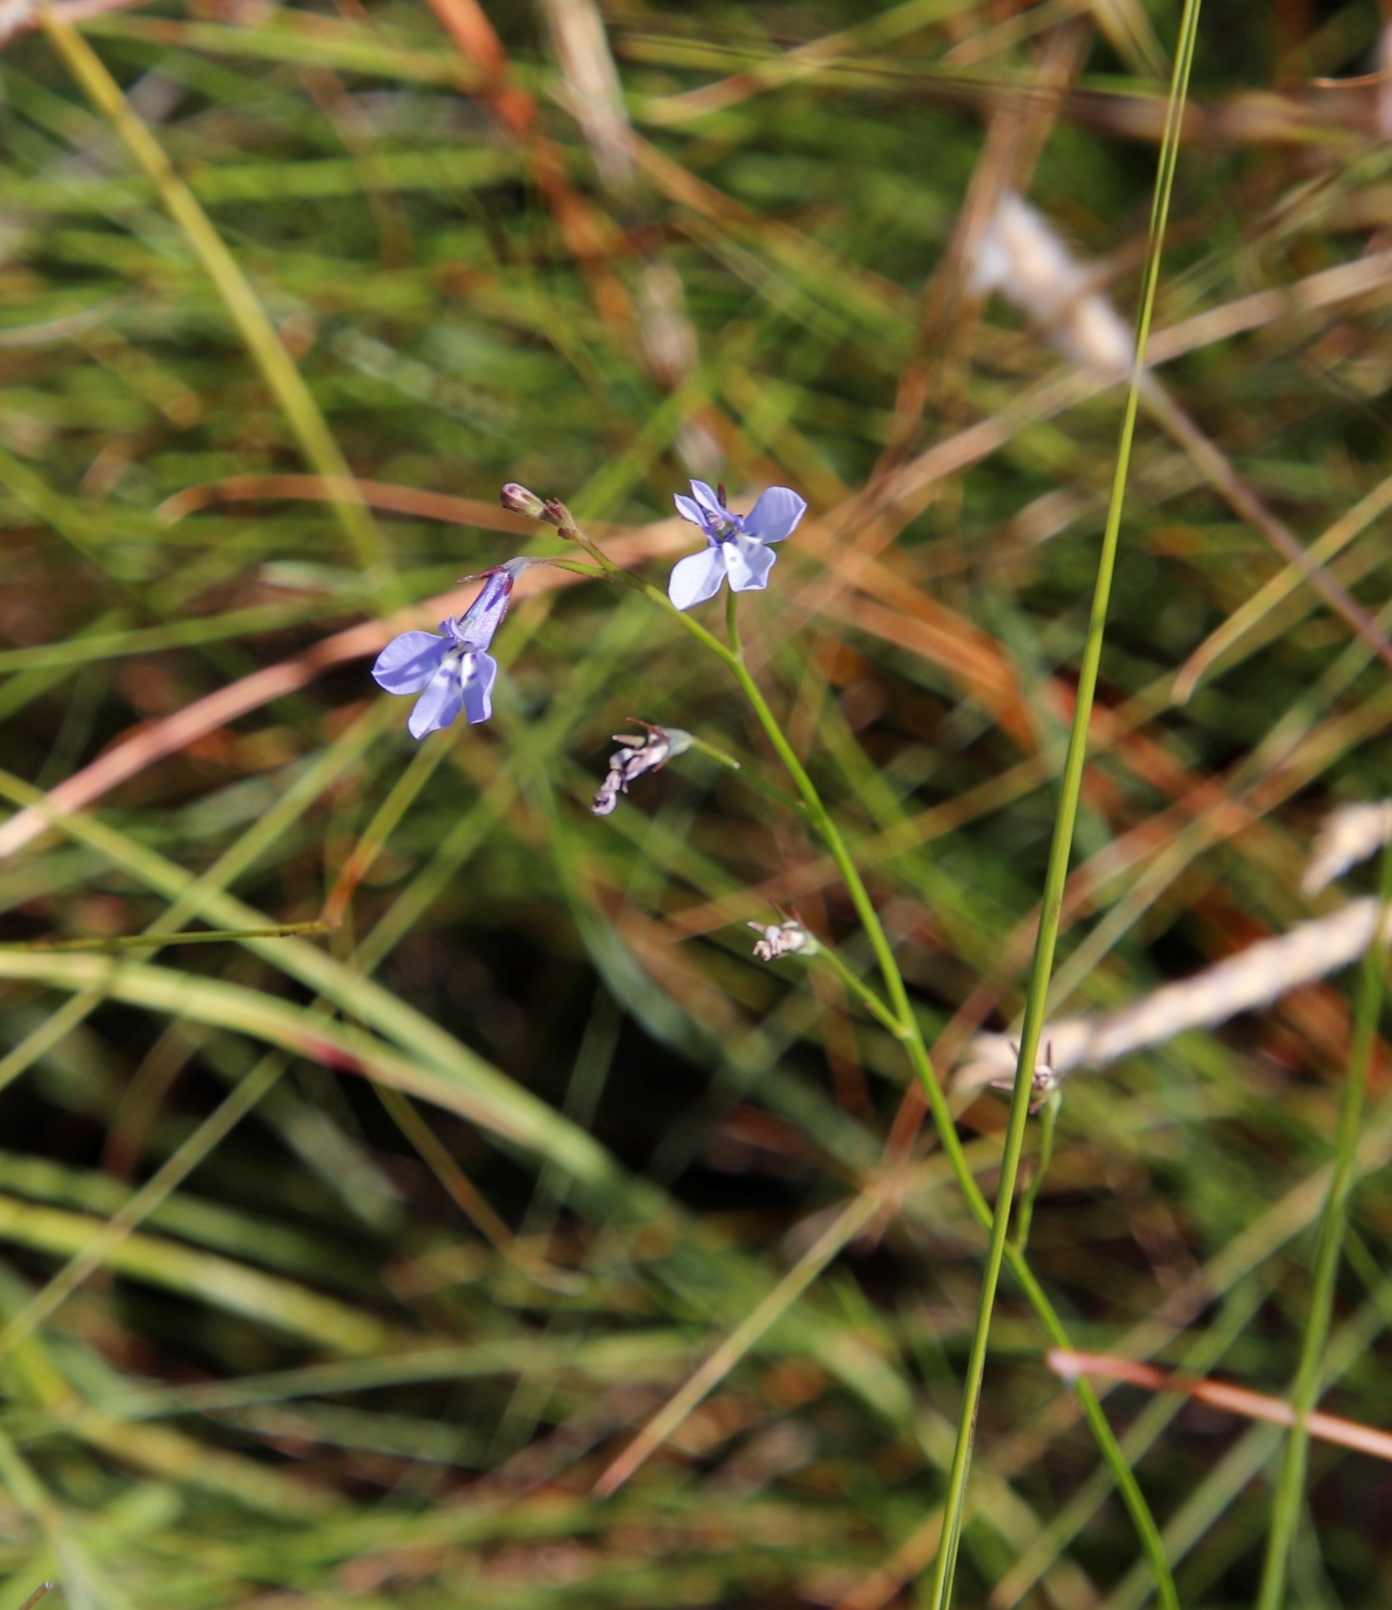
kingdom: Plantae
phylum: Tracheophyta
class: Magnoliopsida
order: Asterales
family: Campanulaceae
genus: Lobelia
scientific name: Lobelia flaccida
